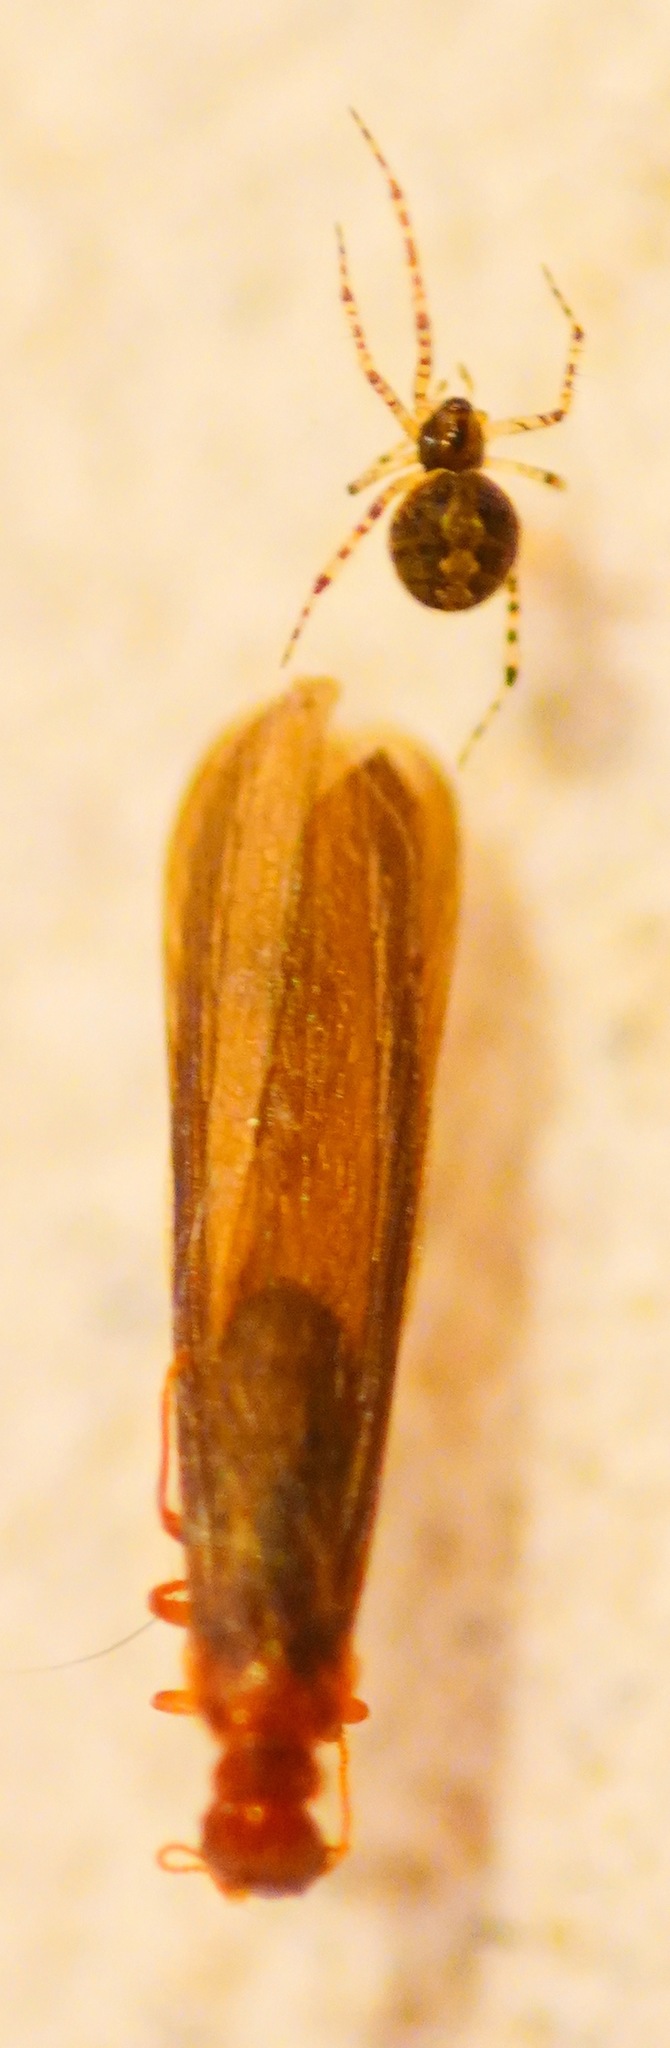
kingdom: Animalia
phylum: Arthropoda
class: Insecta
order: Blattodea
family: Kalotermitidae
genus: Incisitermes
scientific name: Incisitermes minor
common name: Termite
